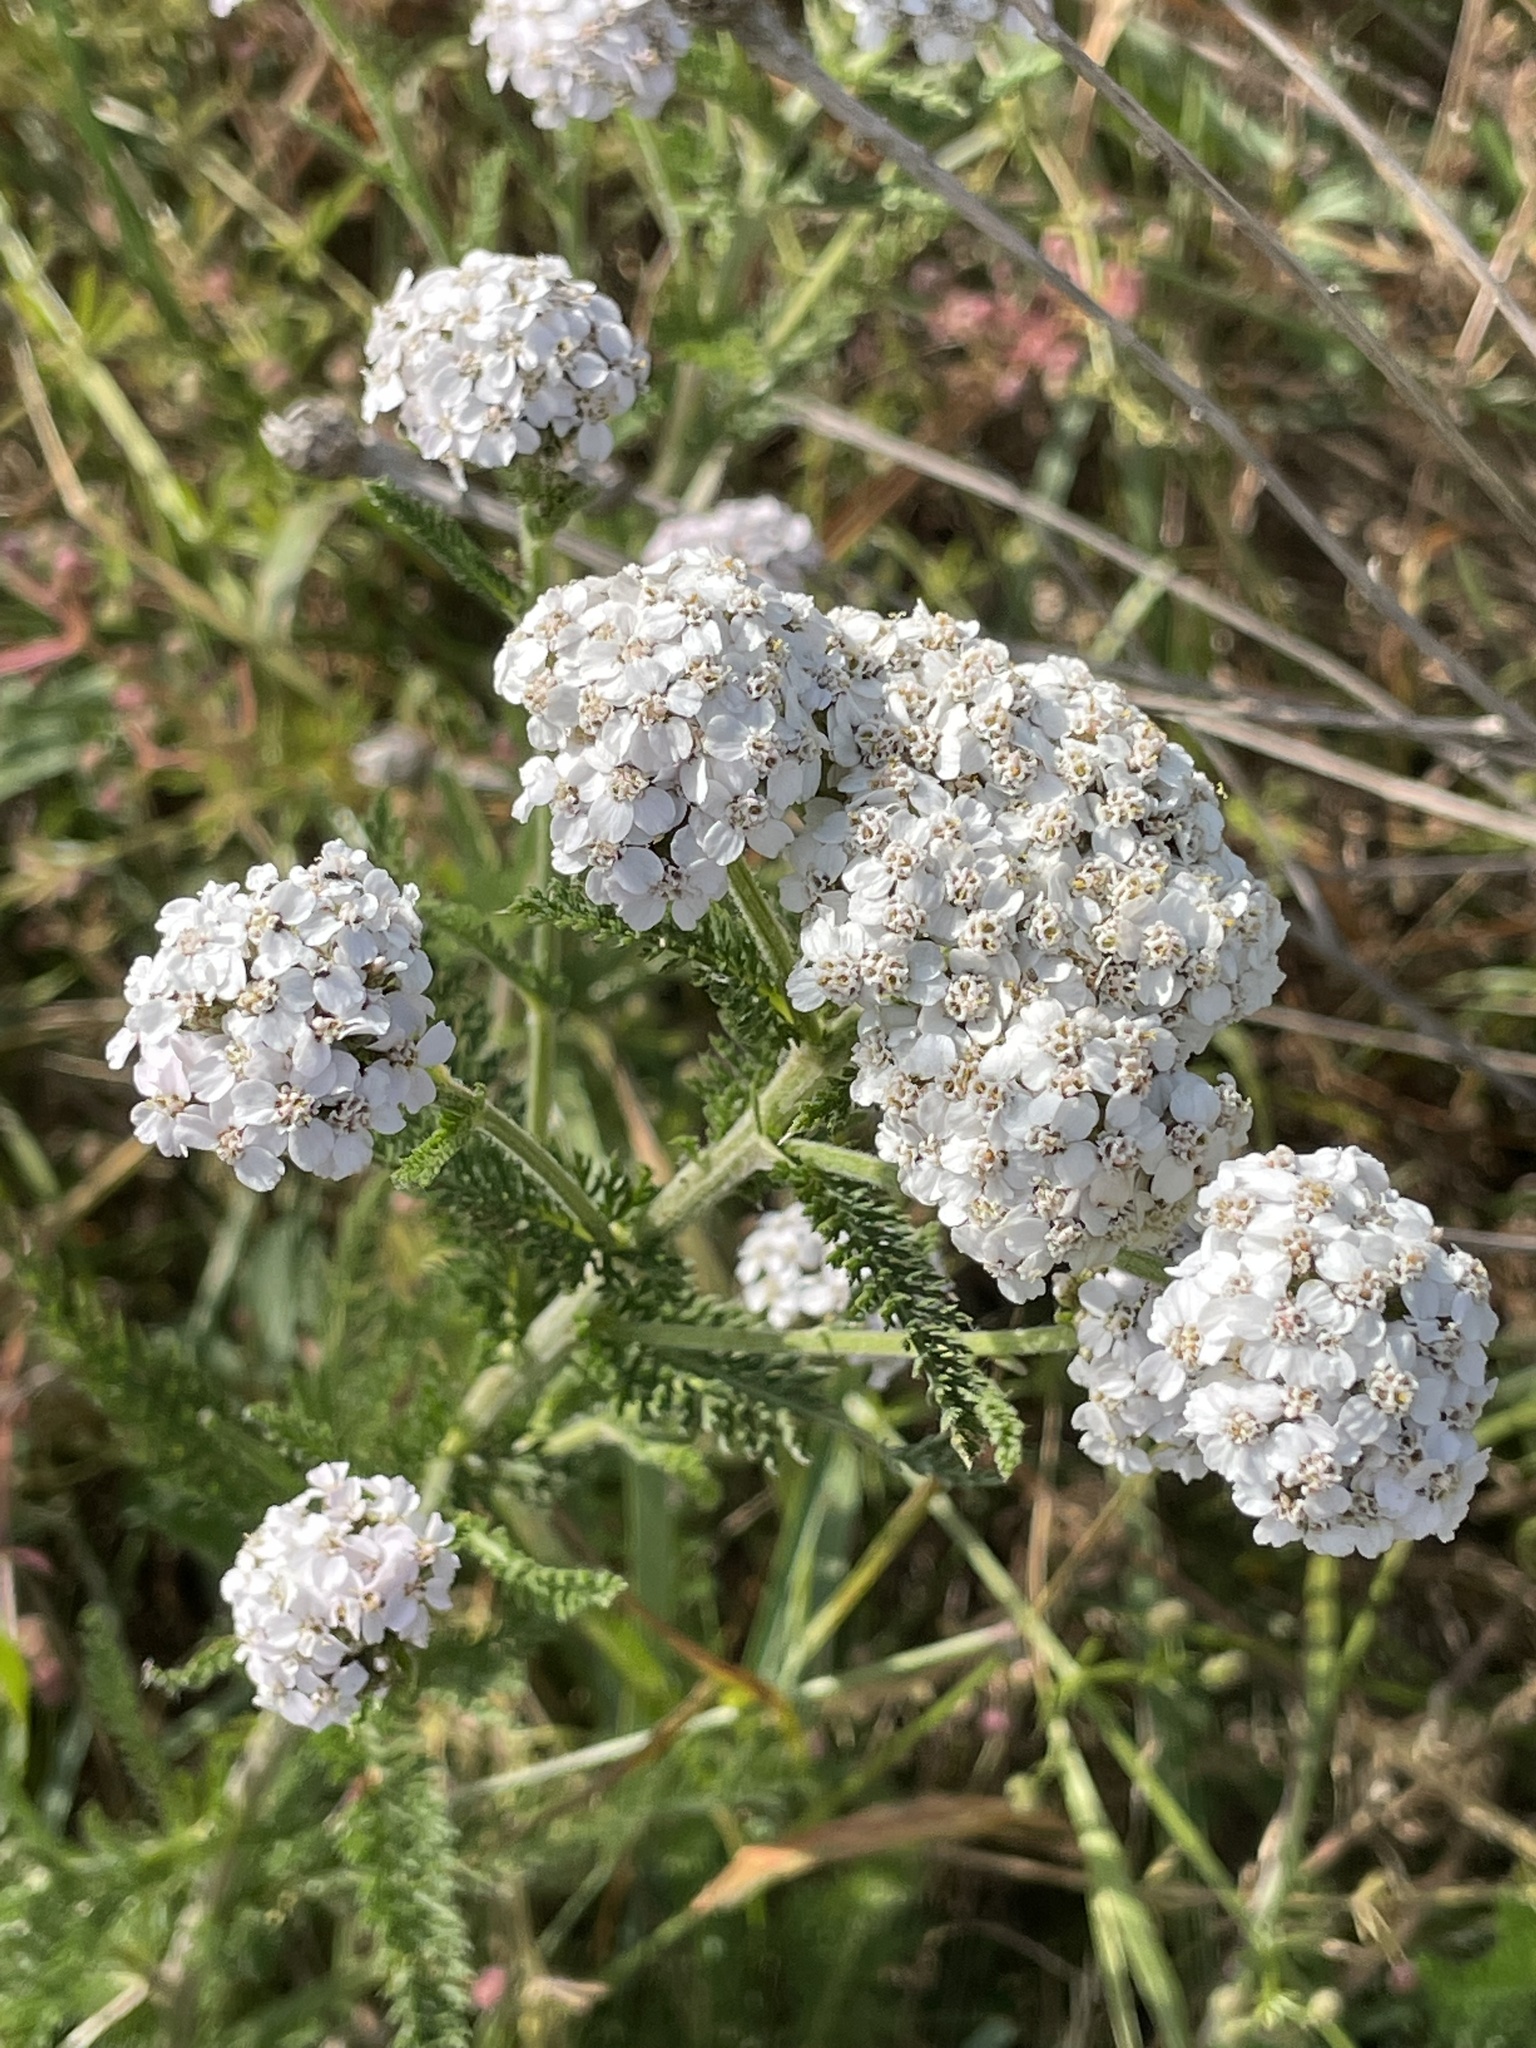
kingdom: Plantae
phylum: Tracheophyta
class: Magnoliopsida
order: Asterales
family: Asteraceae
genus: Achillea
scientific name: Achillea millefolium
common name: Yarrow
